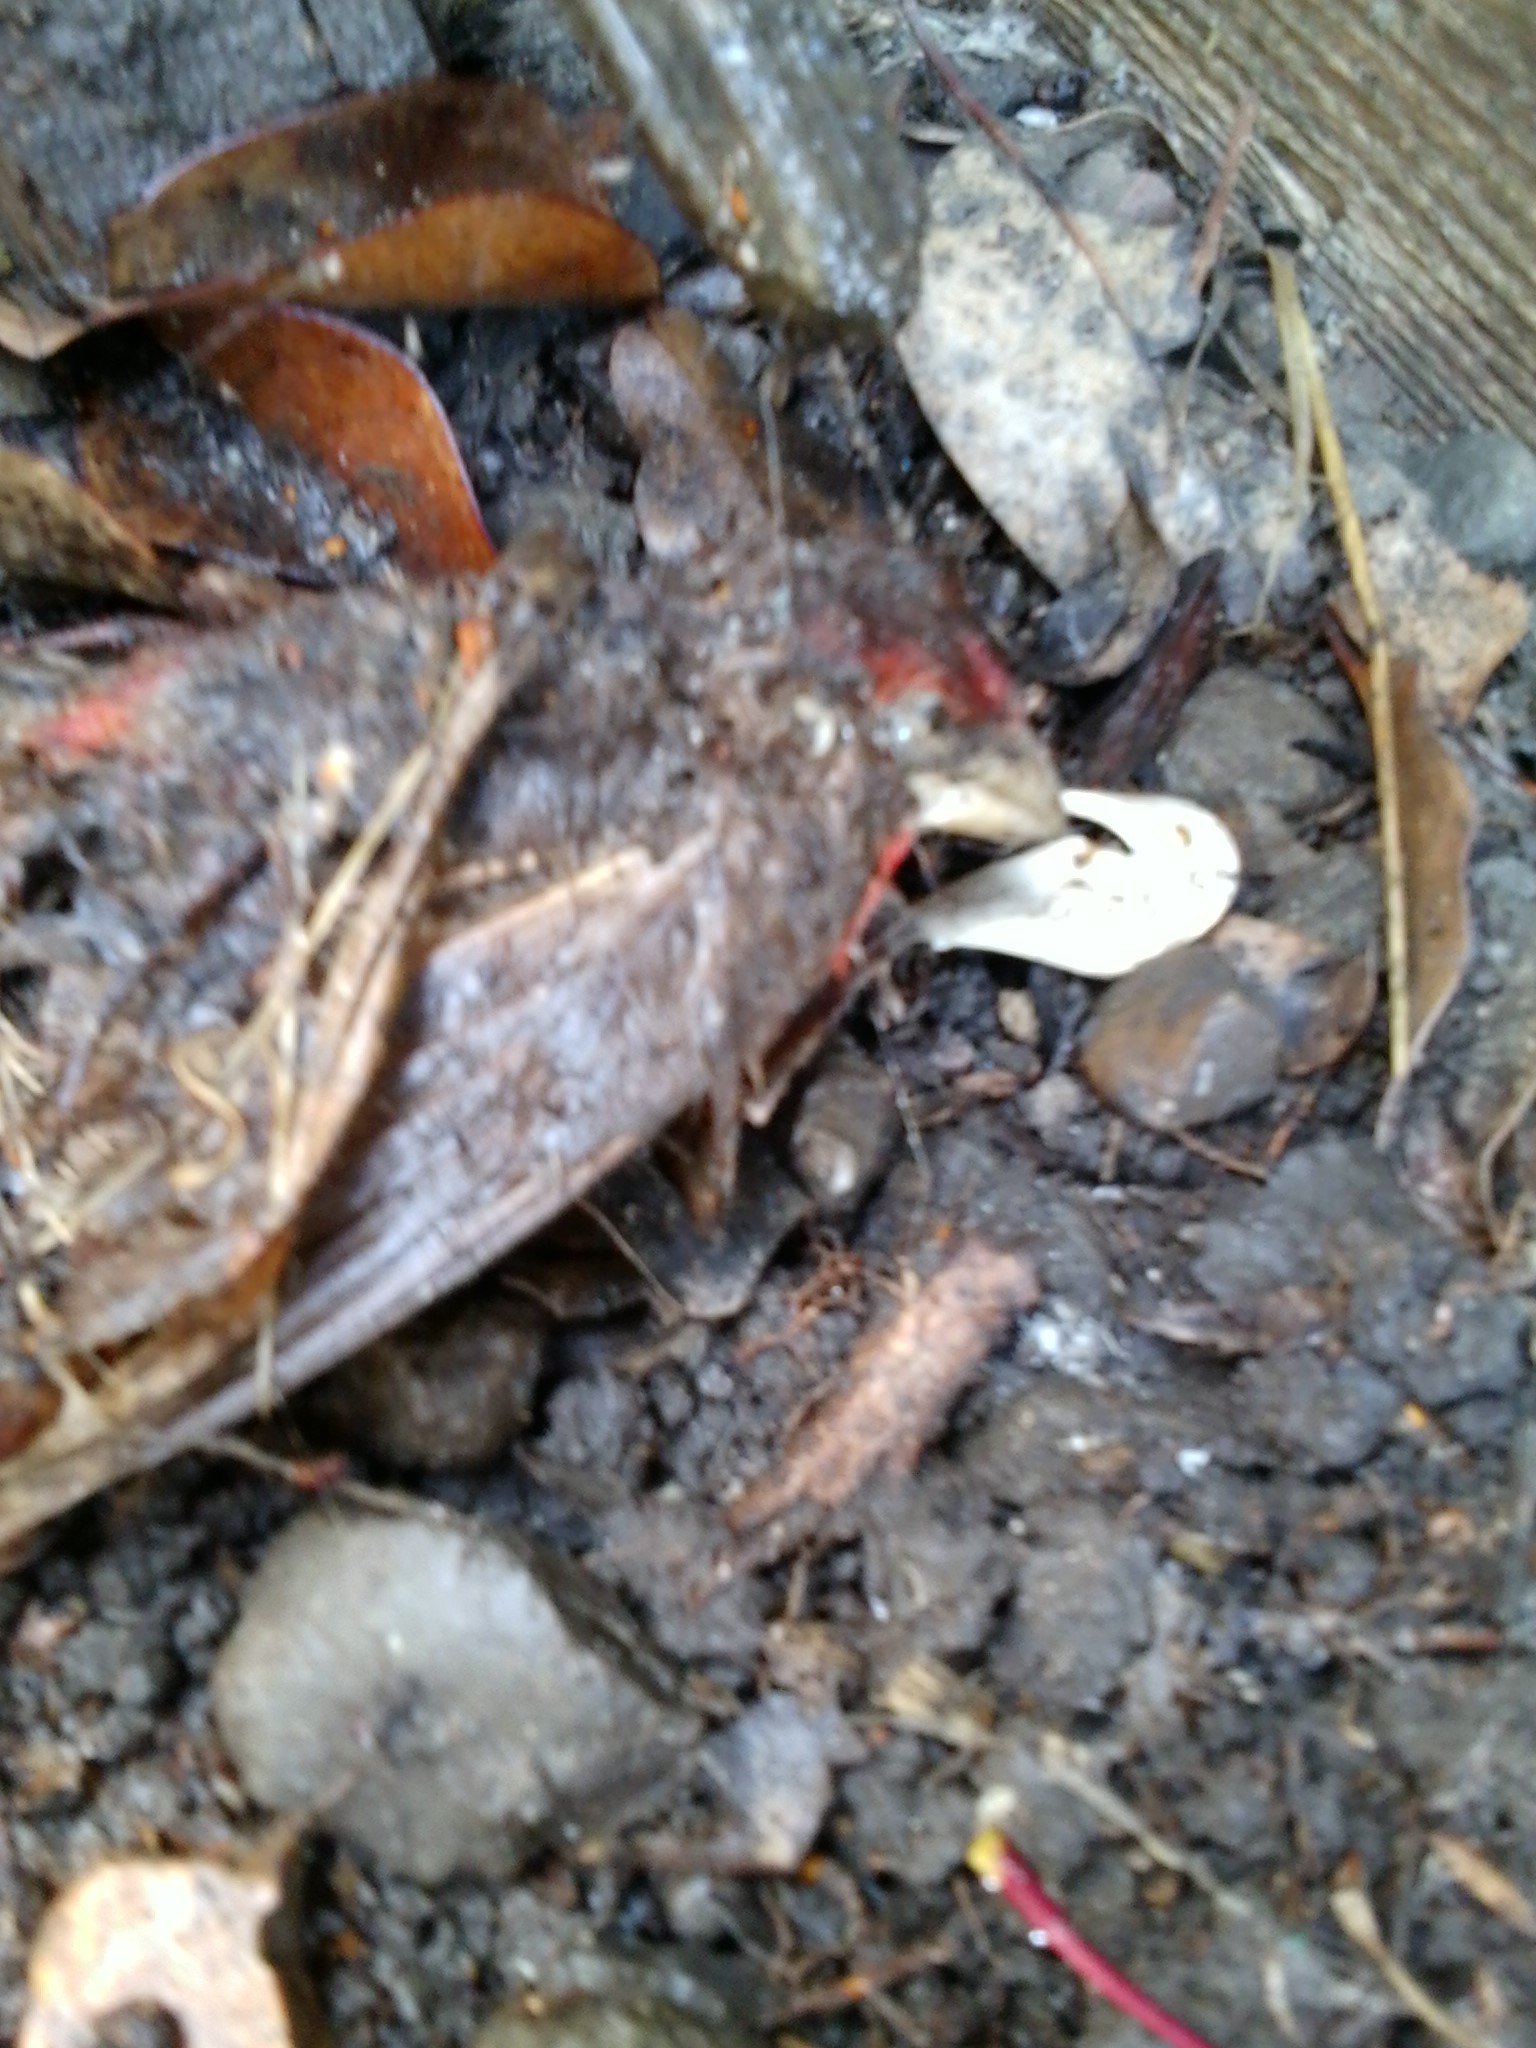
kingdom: Animalia
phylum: Chordata
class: Aves
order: Passeriformes
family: Fringillidae
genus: Haemorhous
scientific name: Haemorhous mexicanus
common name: House finch
